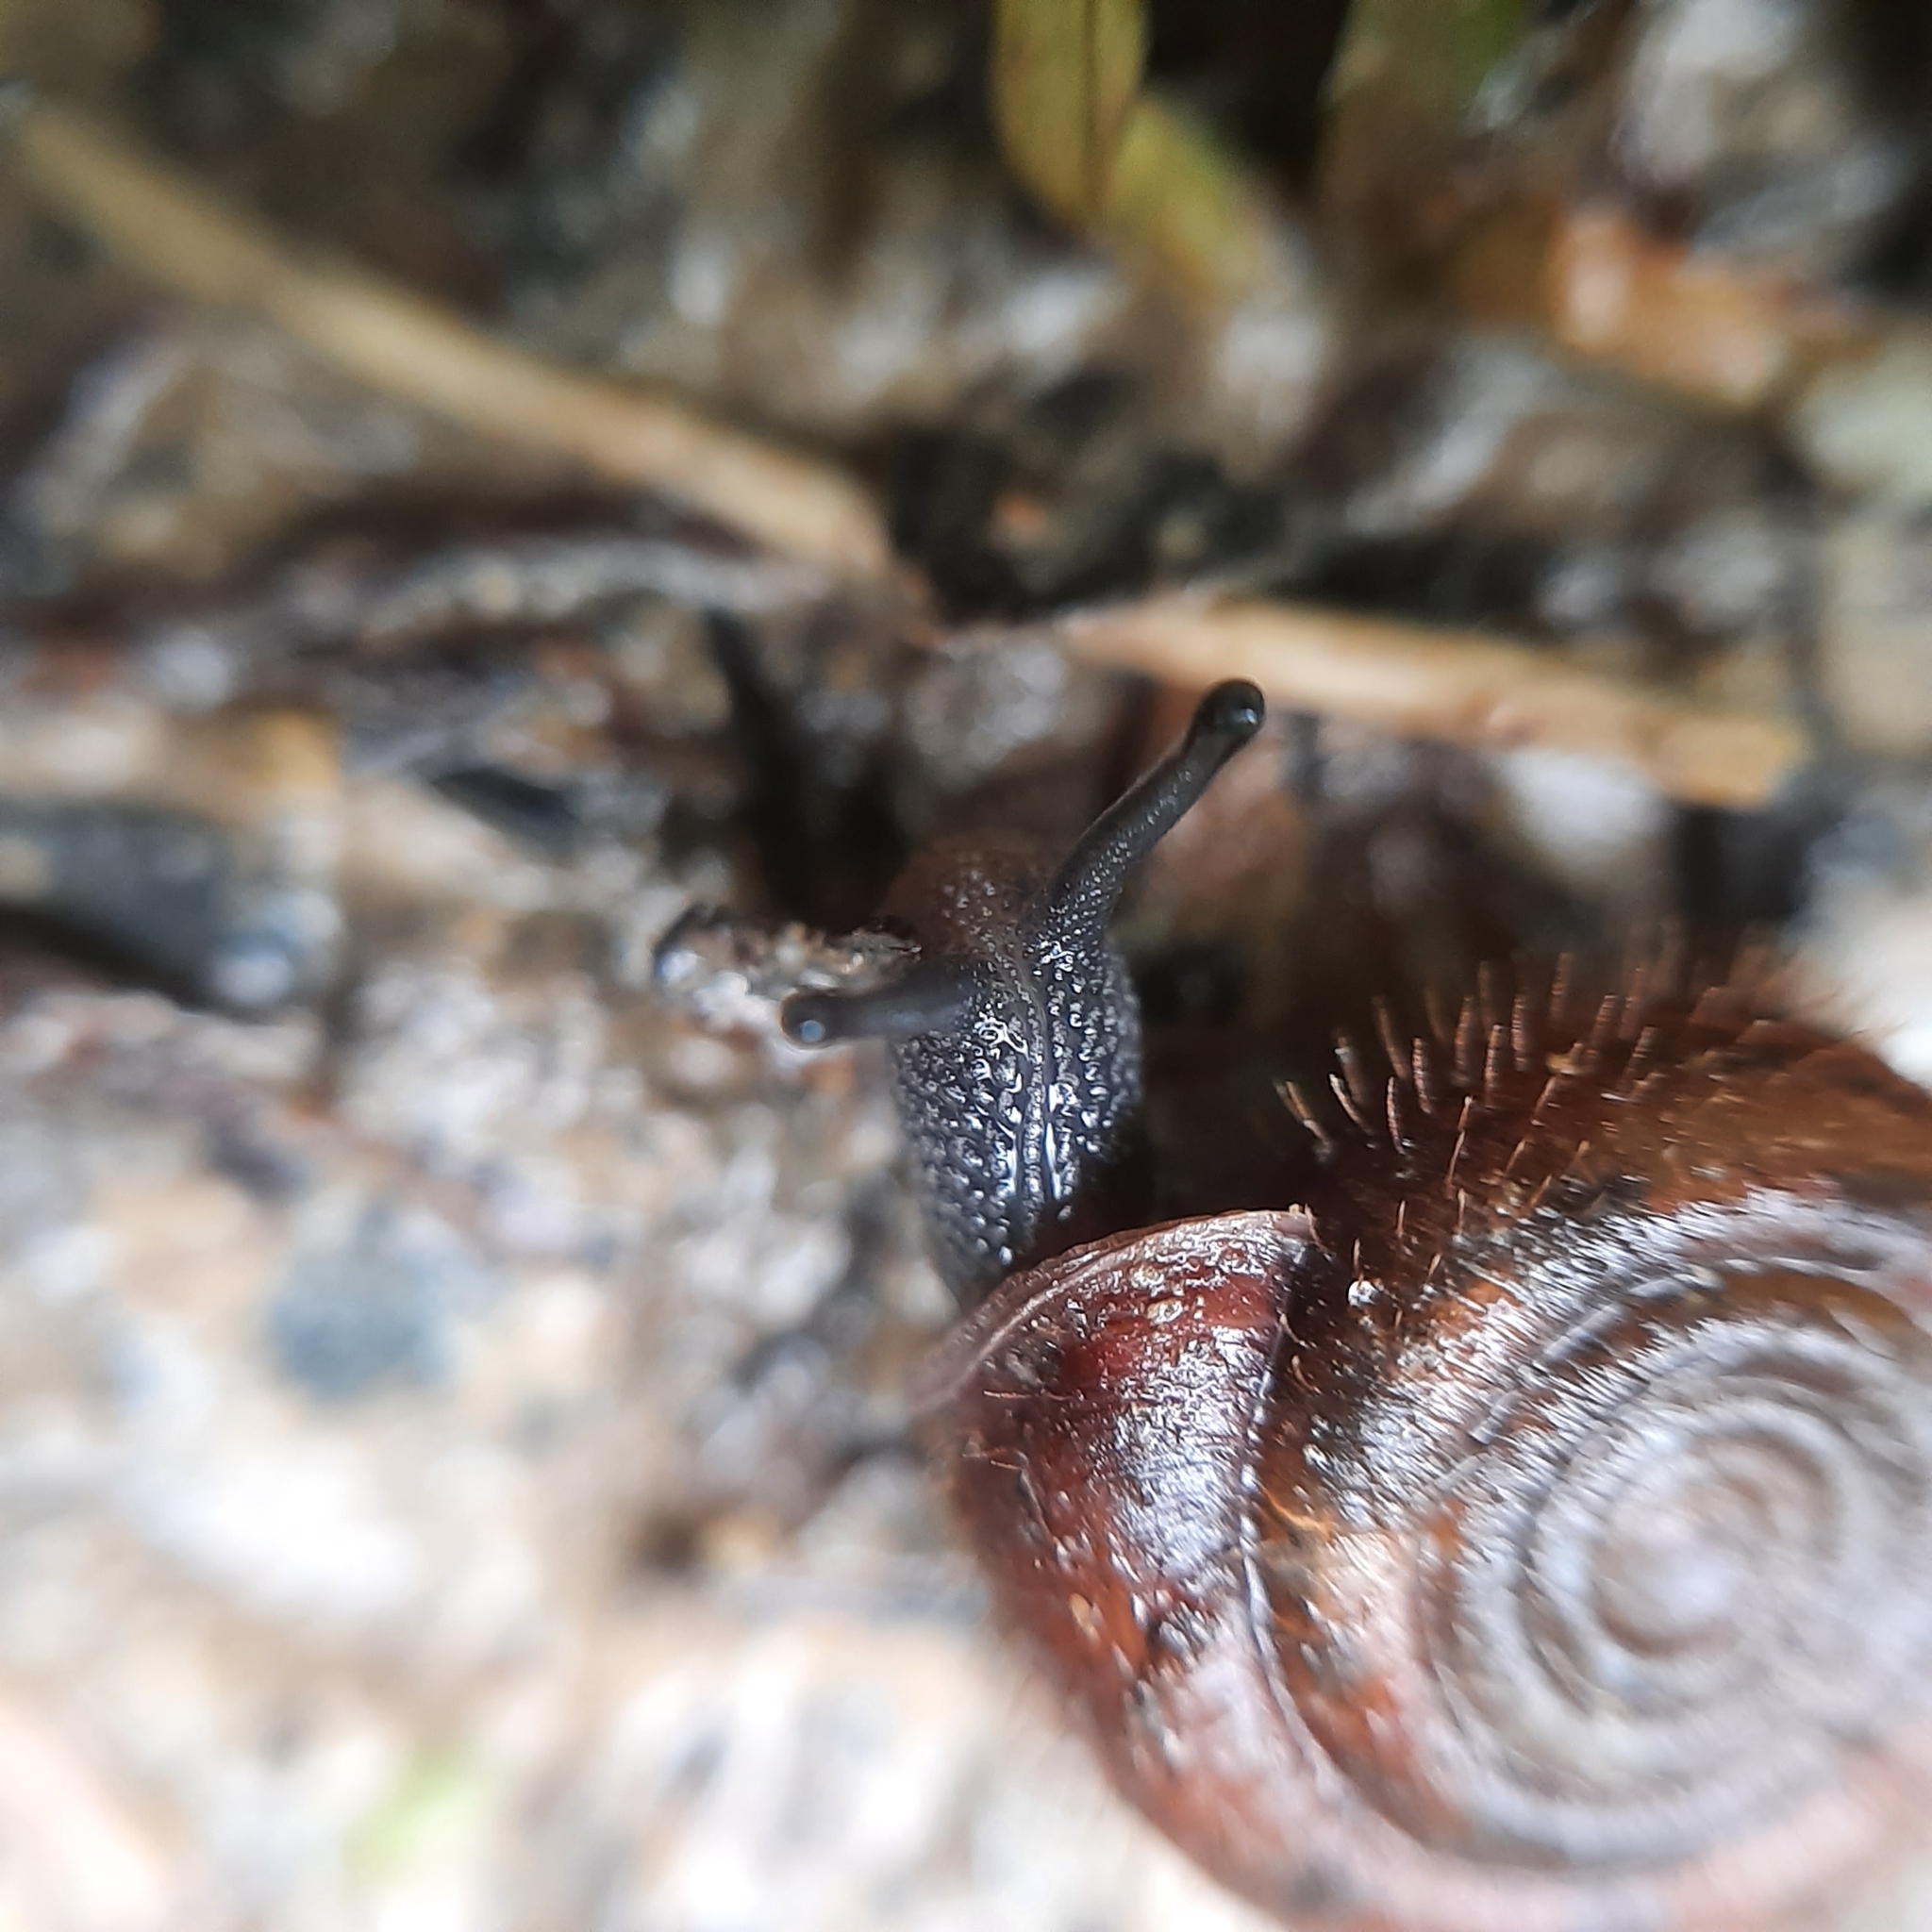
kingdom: Animalia
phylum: Mollusca
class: Gastropoda
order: Stylommatophora
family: Helicodontidae
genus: Helicodonta
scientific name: Helicodonta obvoluta
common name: Cheese snail
